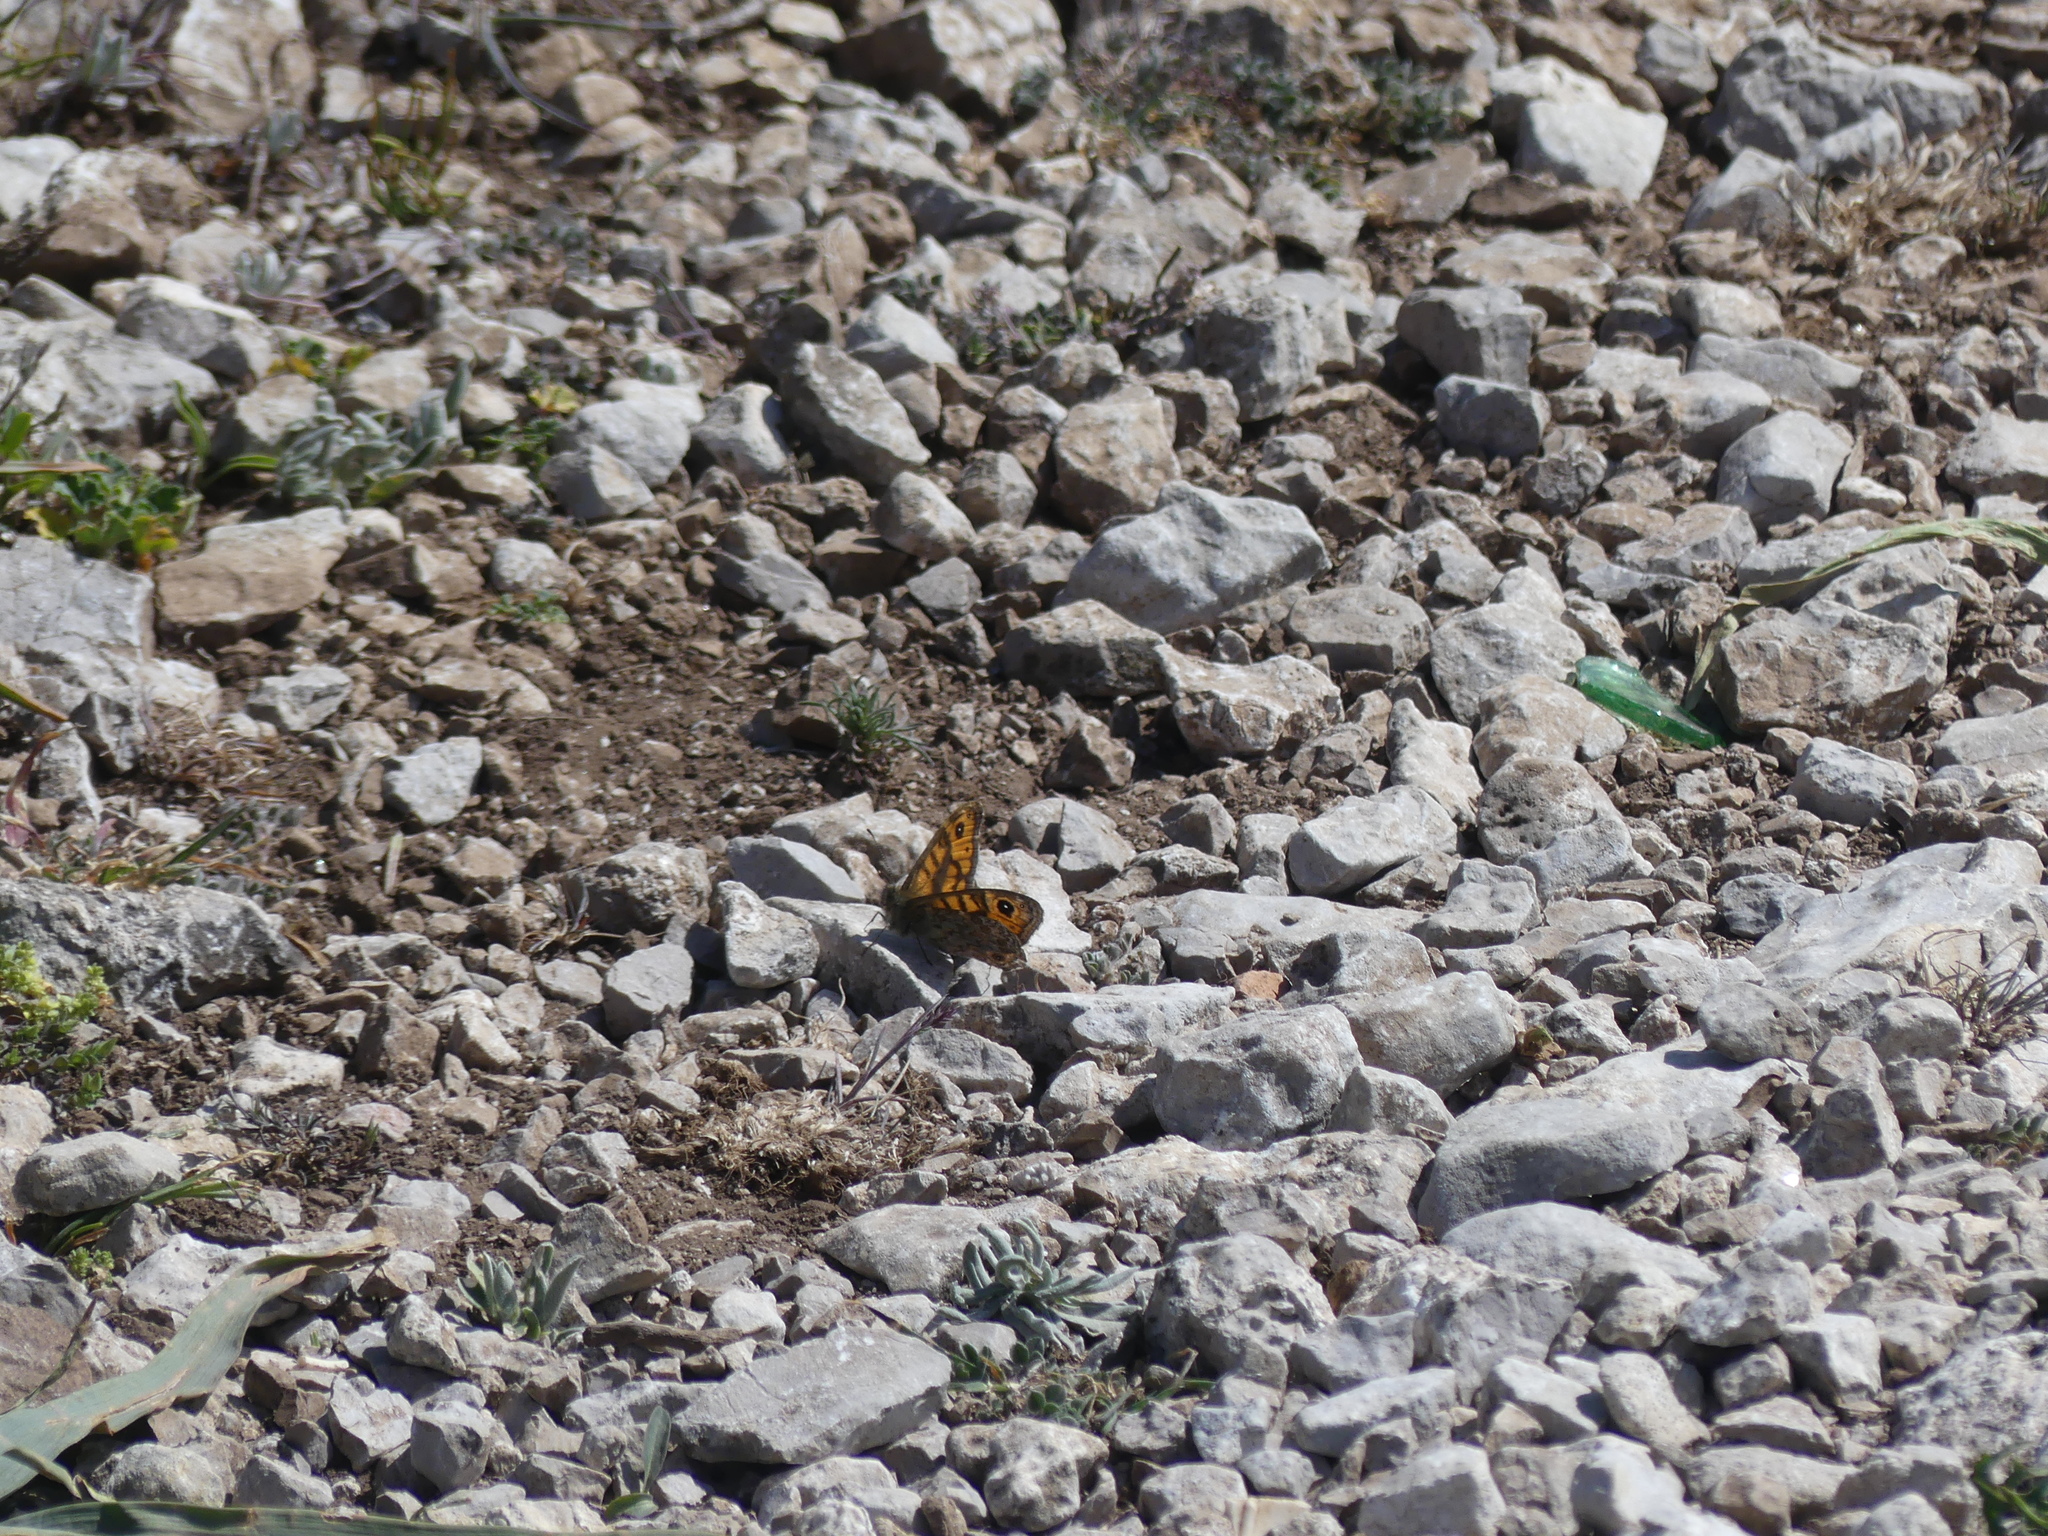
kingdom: Animalia
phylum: Arthropoda
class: Insecta
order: Lepidoptera
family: Nymphalidae
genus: Pararge
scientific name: Pararge Lasiommata megera
